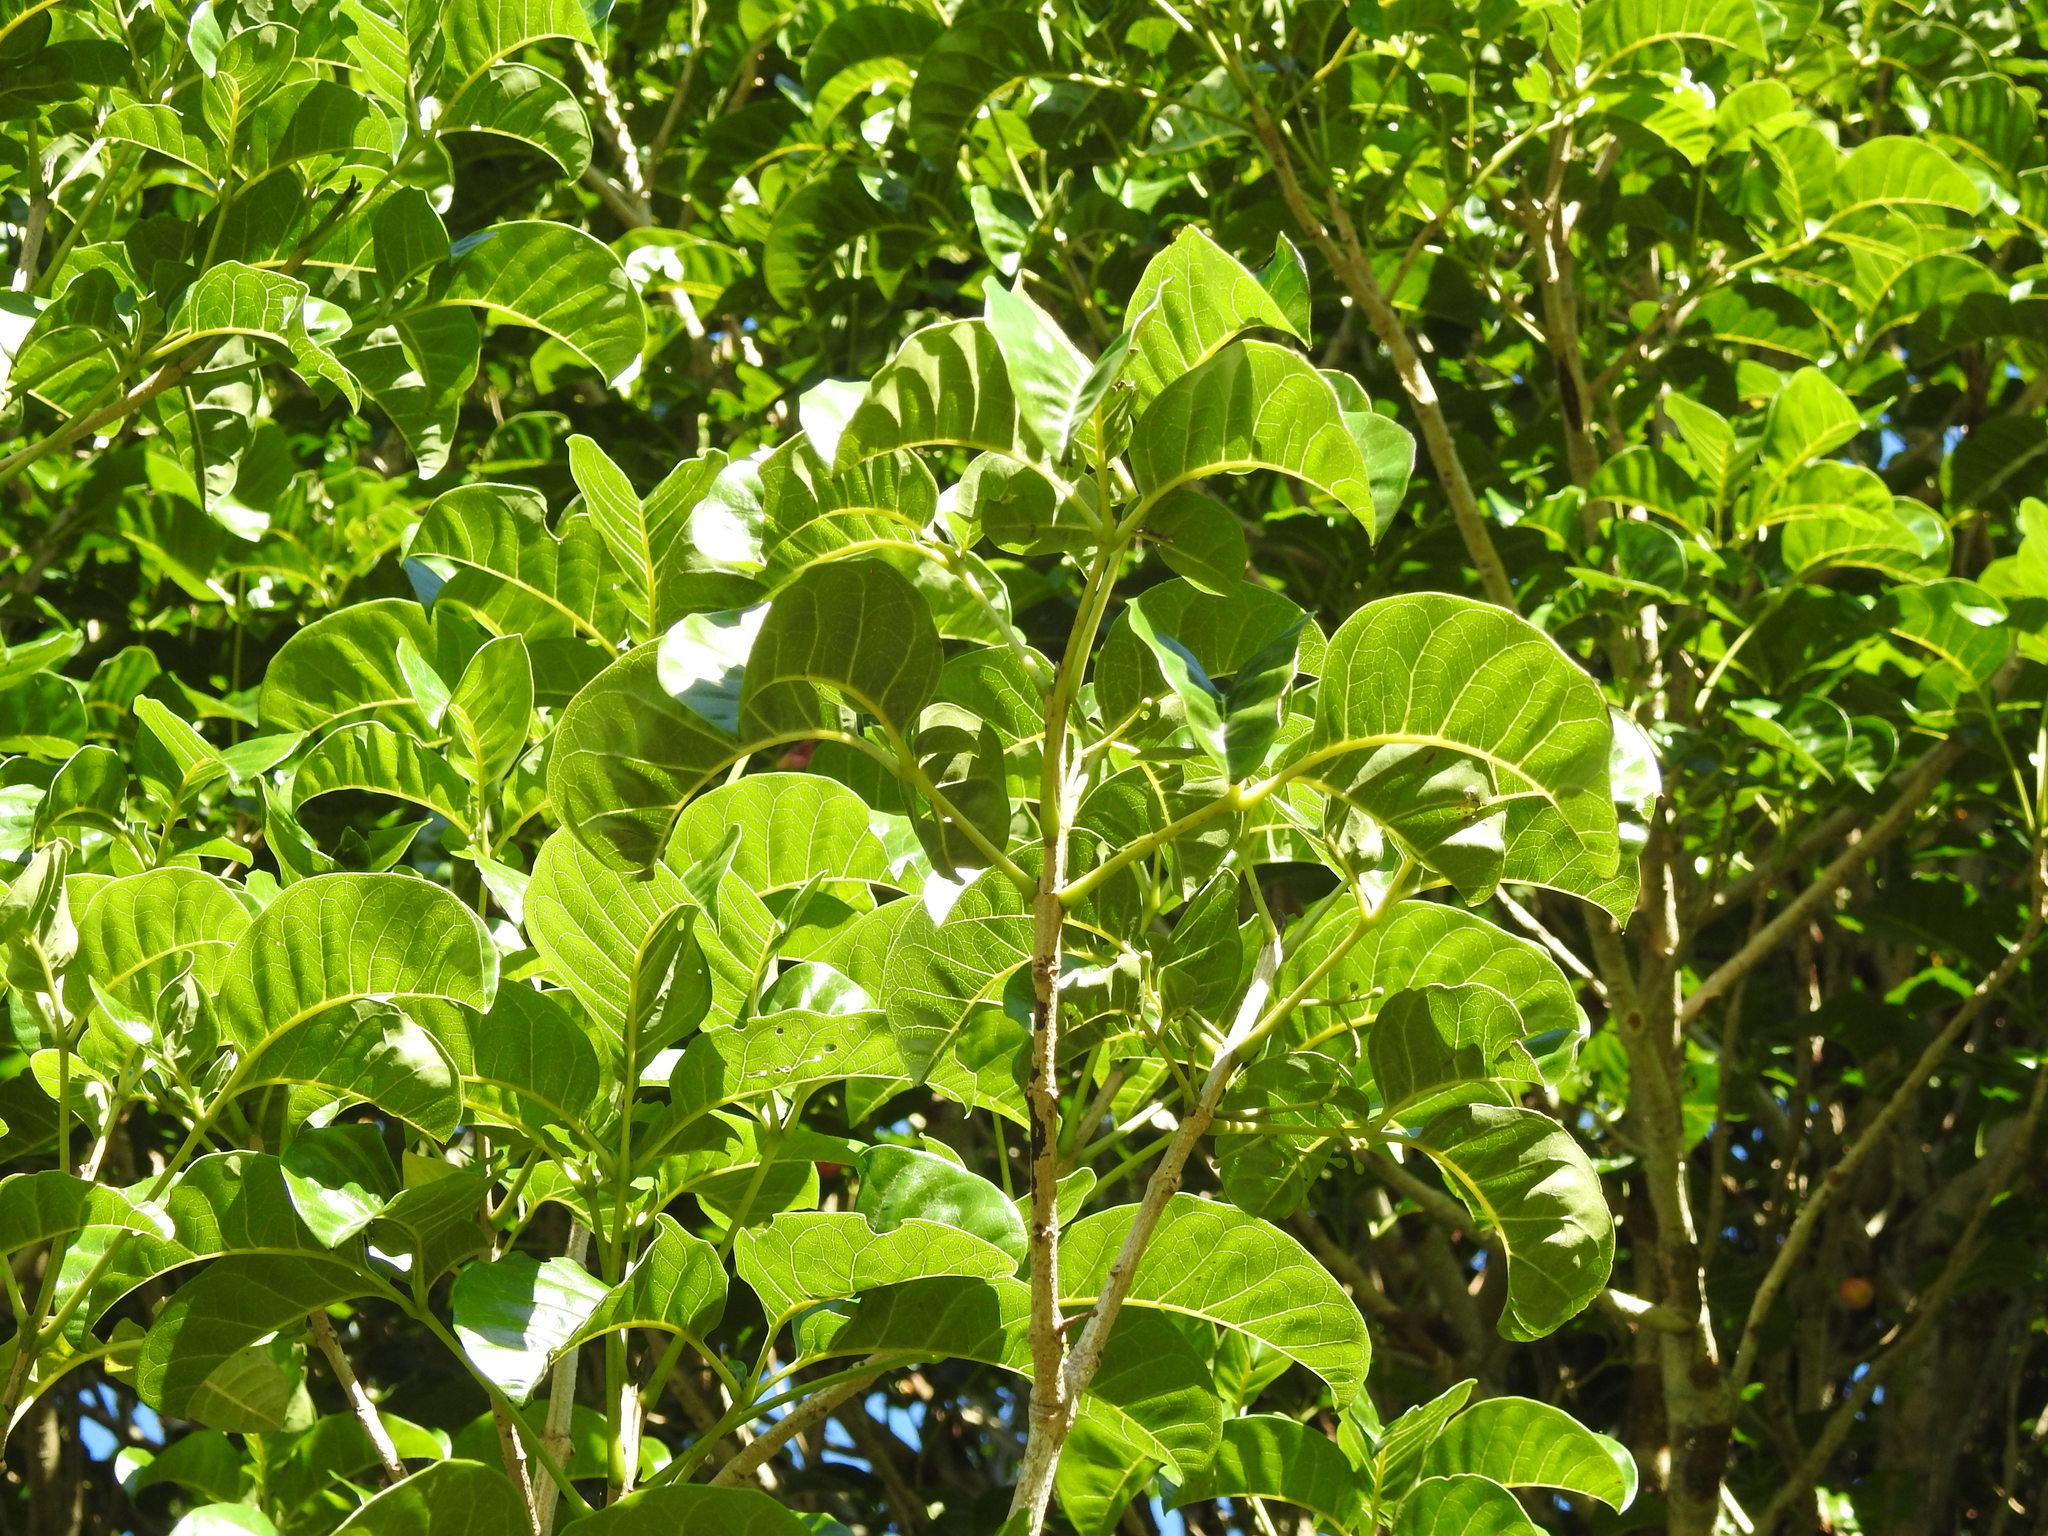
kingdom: Plantae
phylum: Tracheophyta
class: Magnoliopsida
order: Lamiales
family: Lamiaceae
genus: Vitex
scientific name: Vitex lucens
